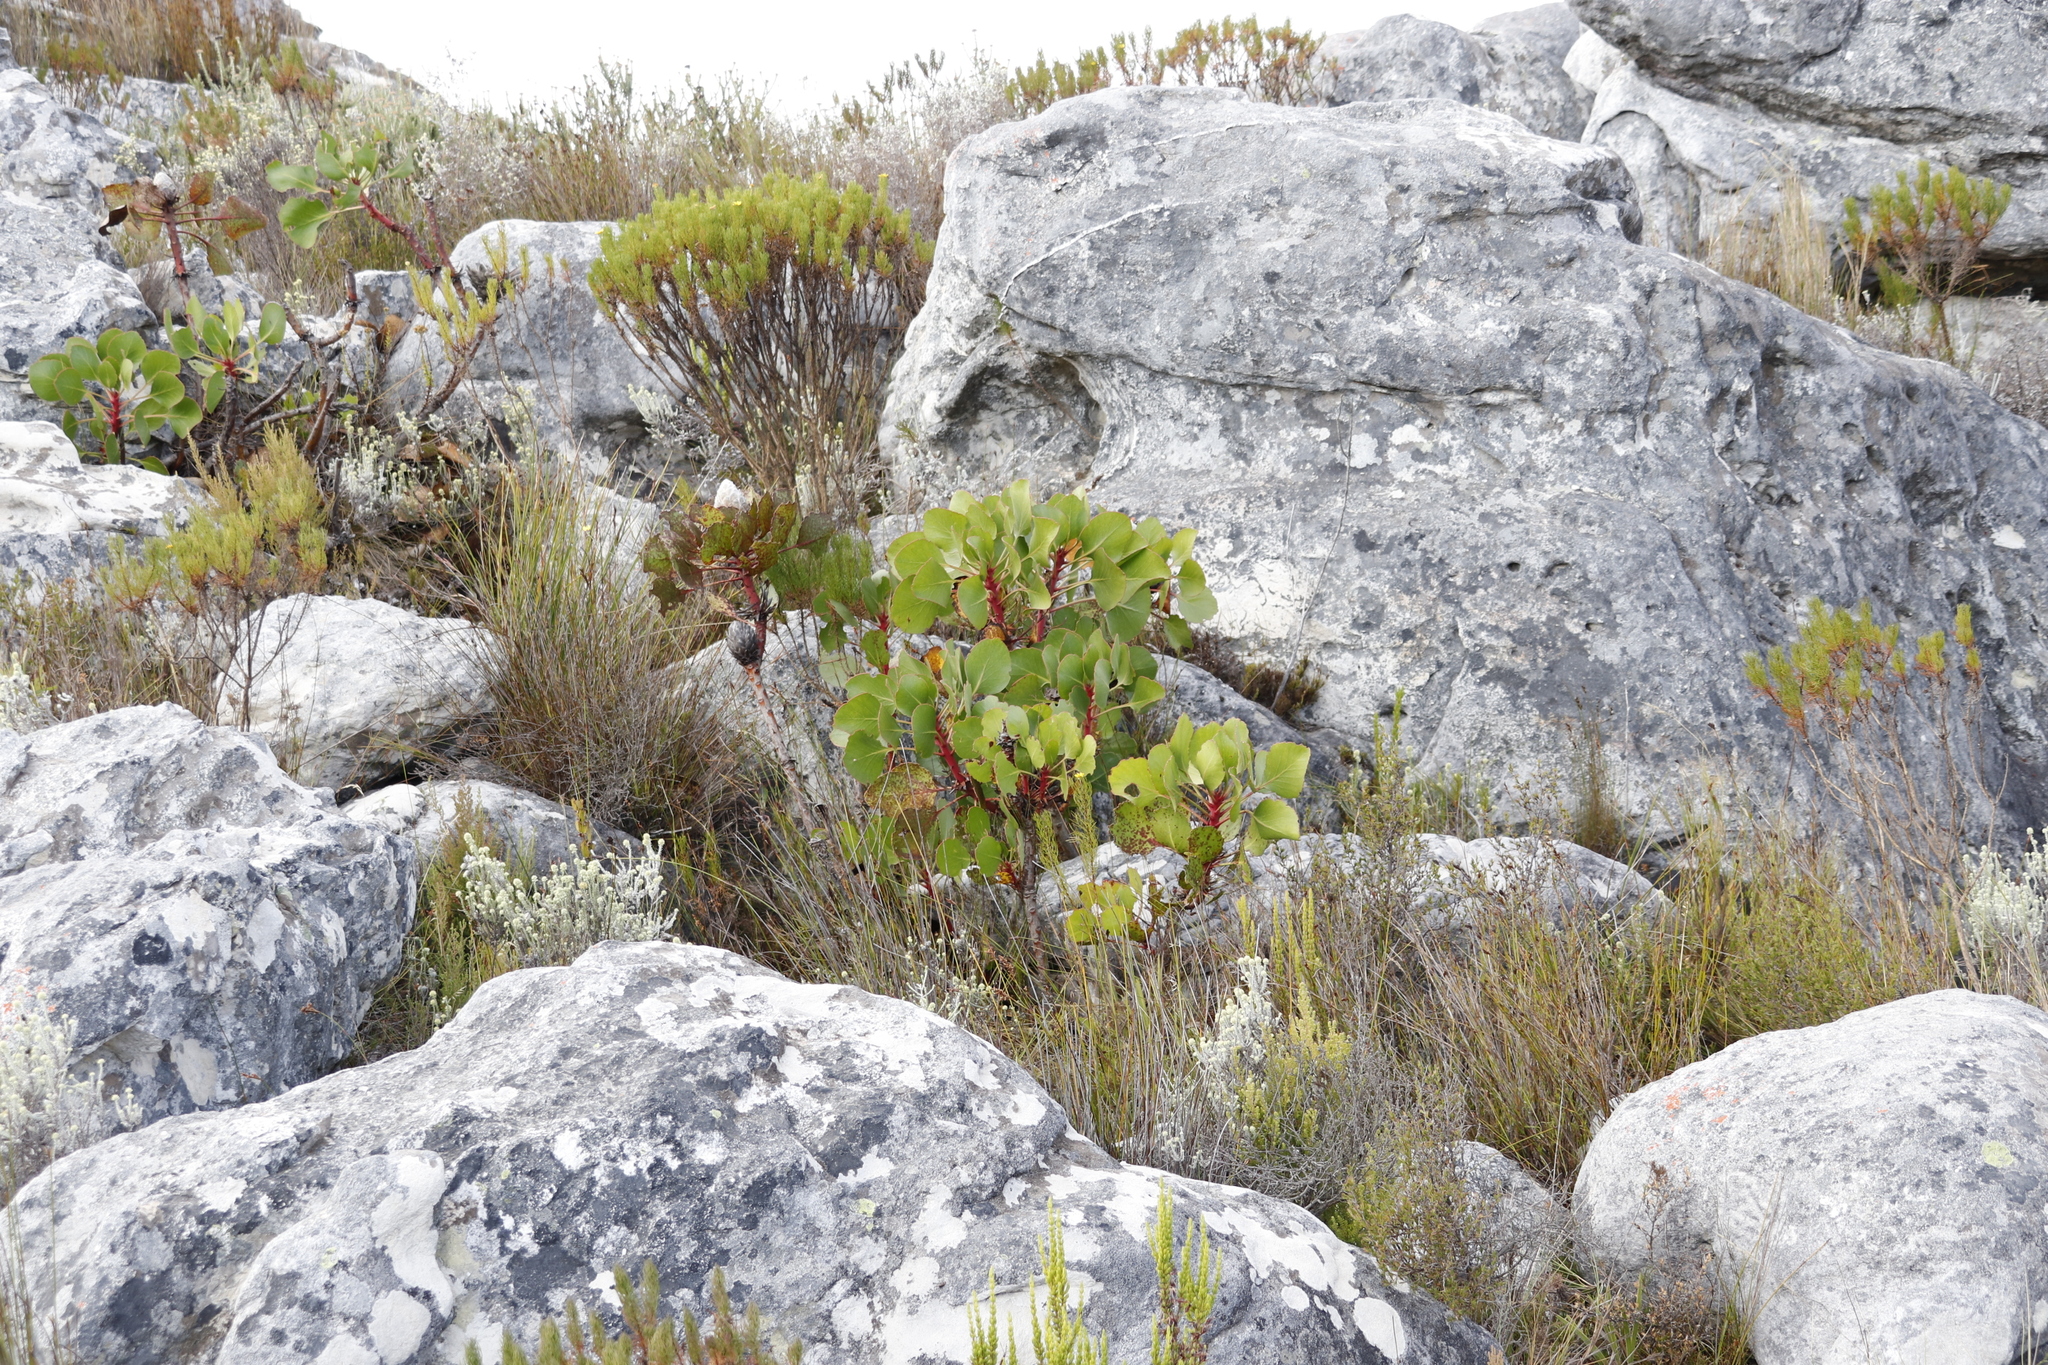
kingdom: Plantae
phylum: Tracheophyta
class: Magnoliopsida
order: Proteales
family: Proteaceae
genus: Protea
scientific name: Protea cynaroides
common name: King protea
